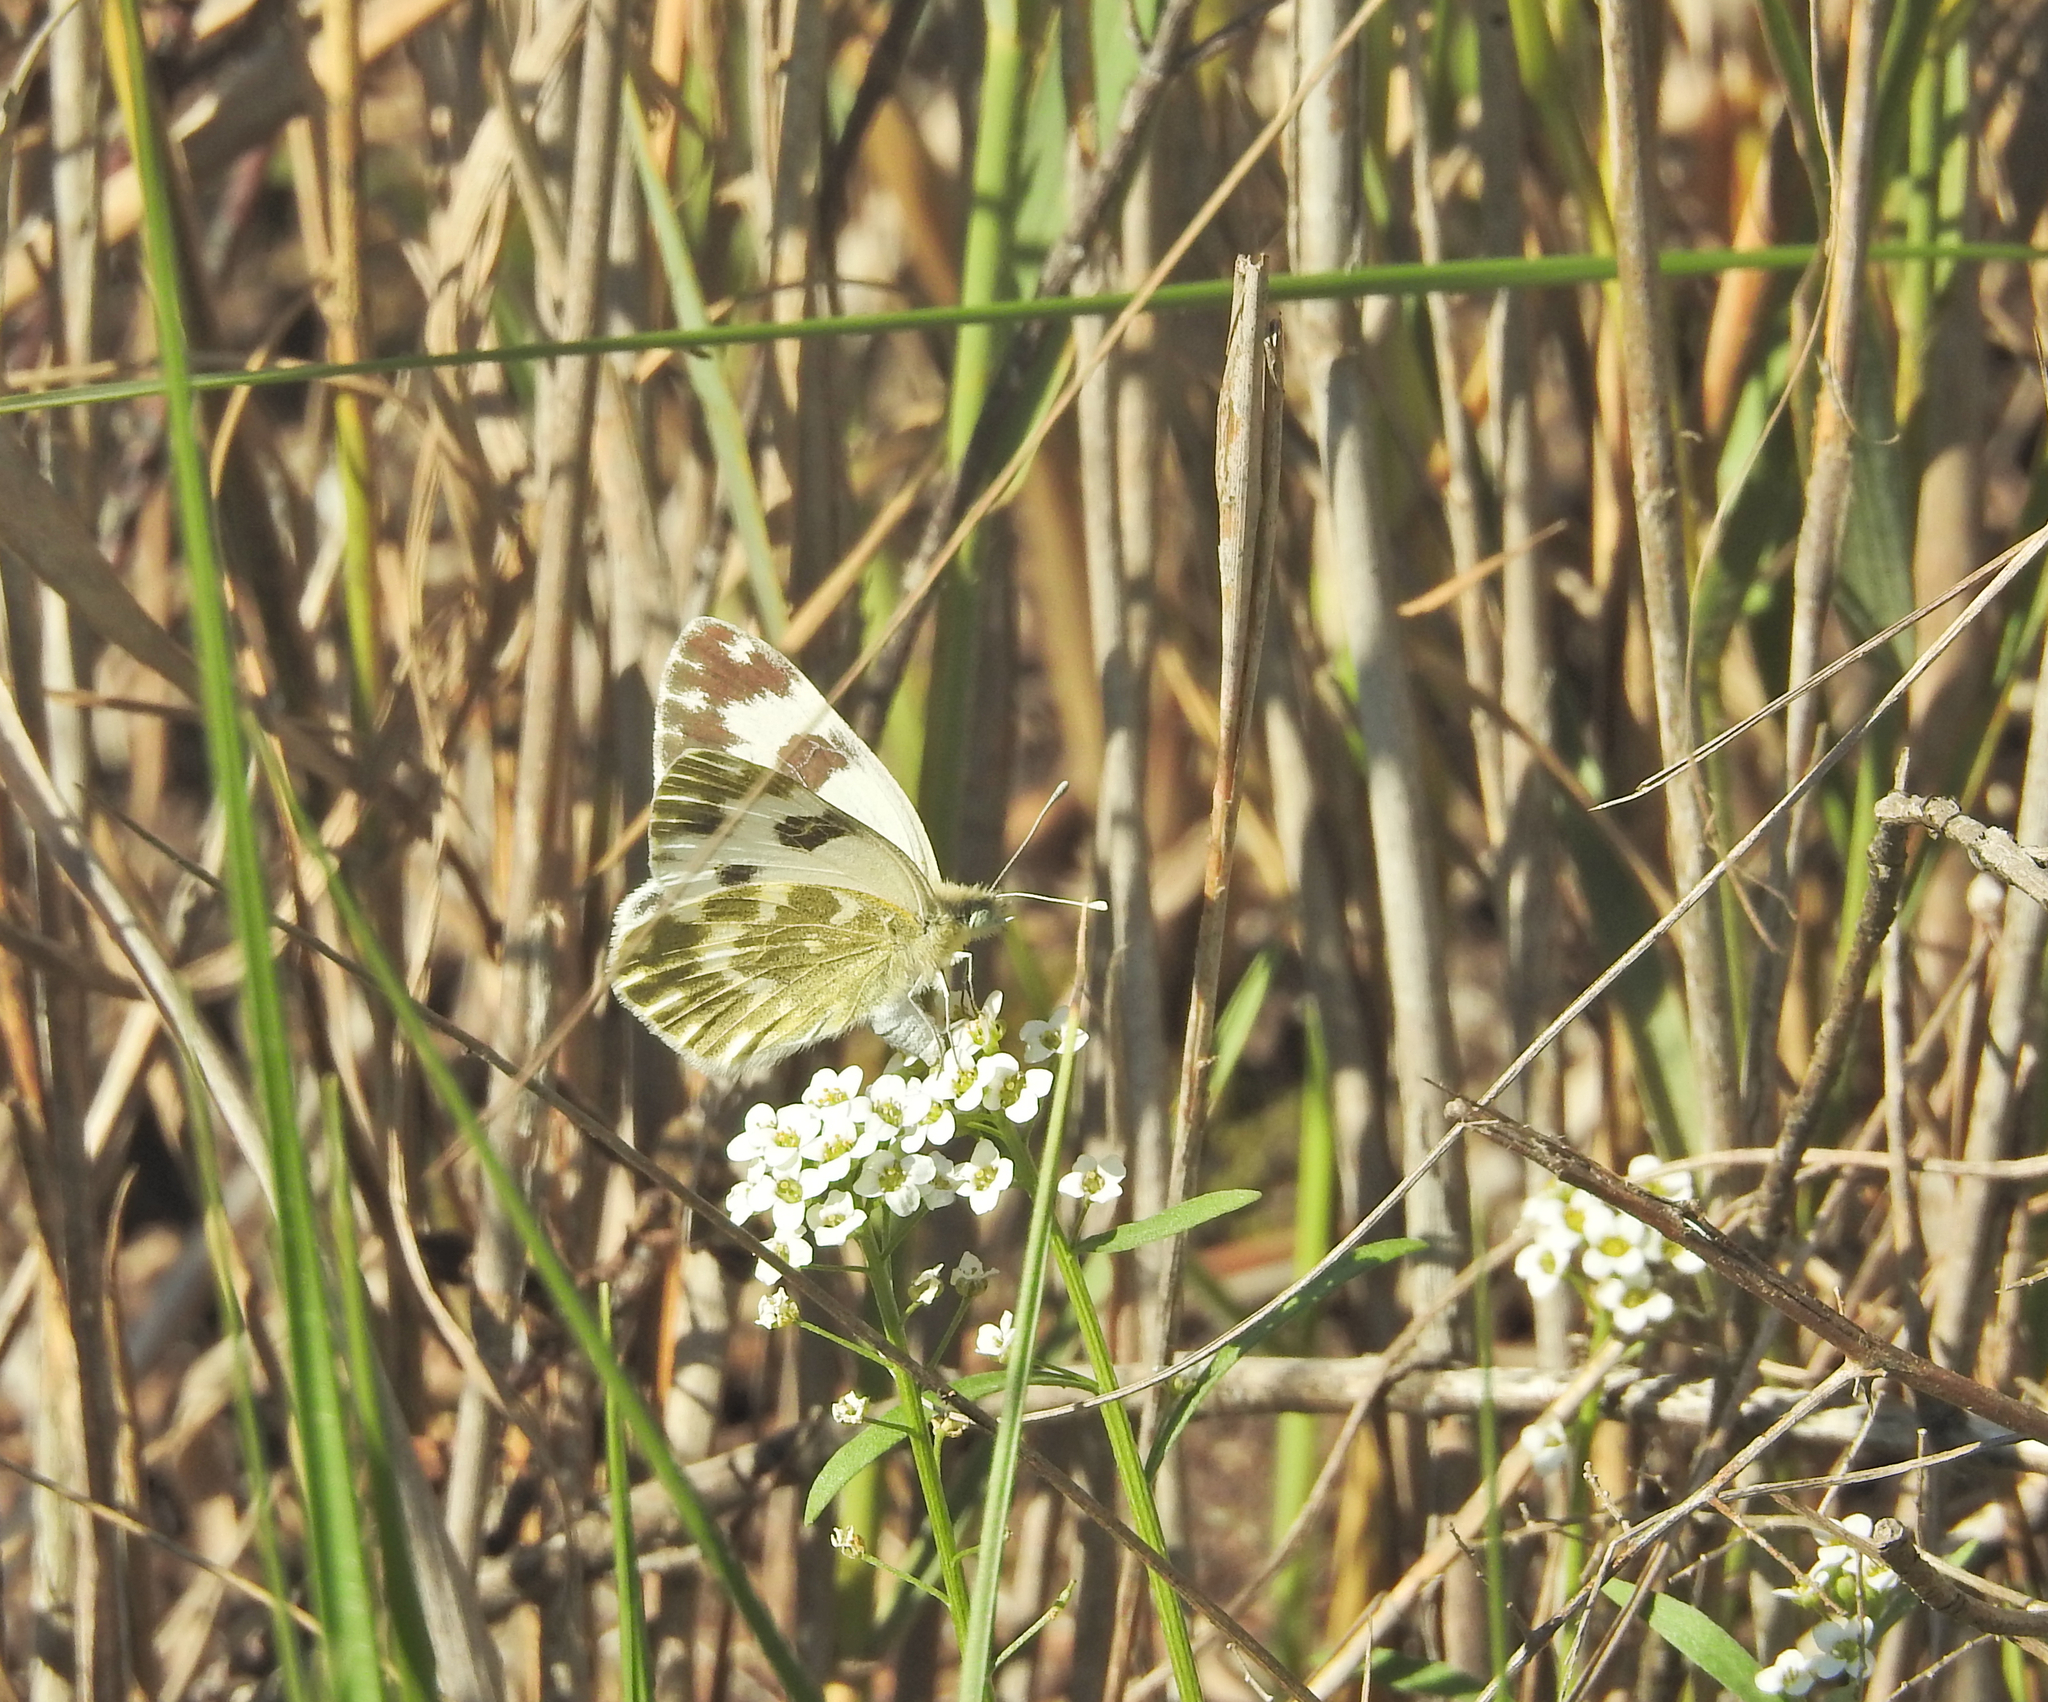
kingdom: Animalia
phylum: Arthropoda
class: Insecta
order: Lepidoptera
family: Pieridae
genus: Pontia
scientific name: Pontia daplidice
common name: Bath white
